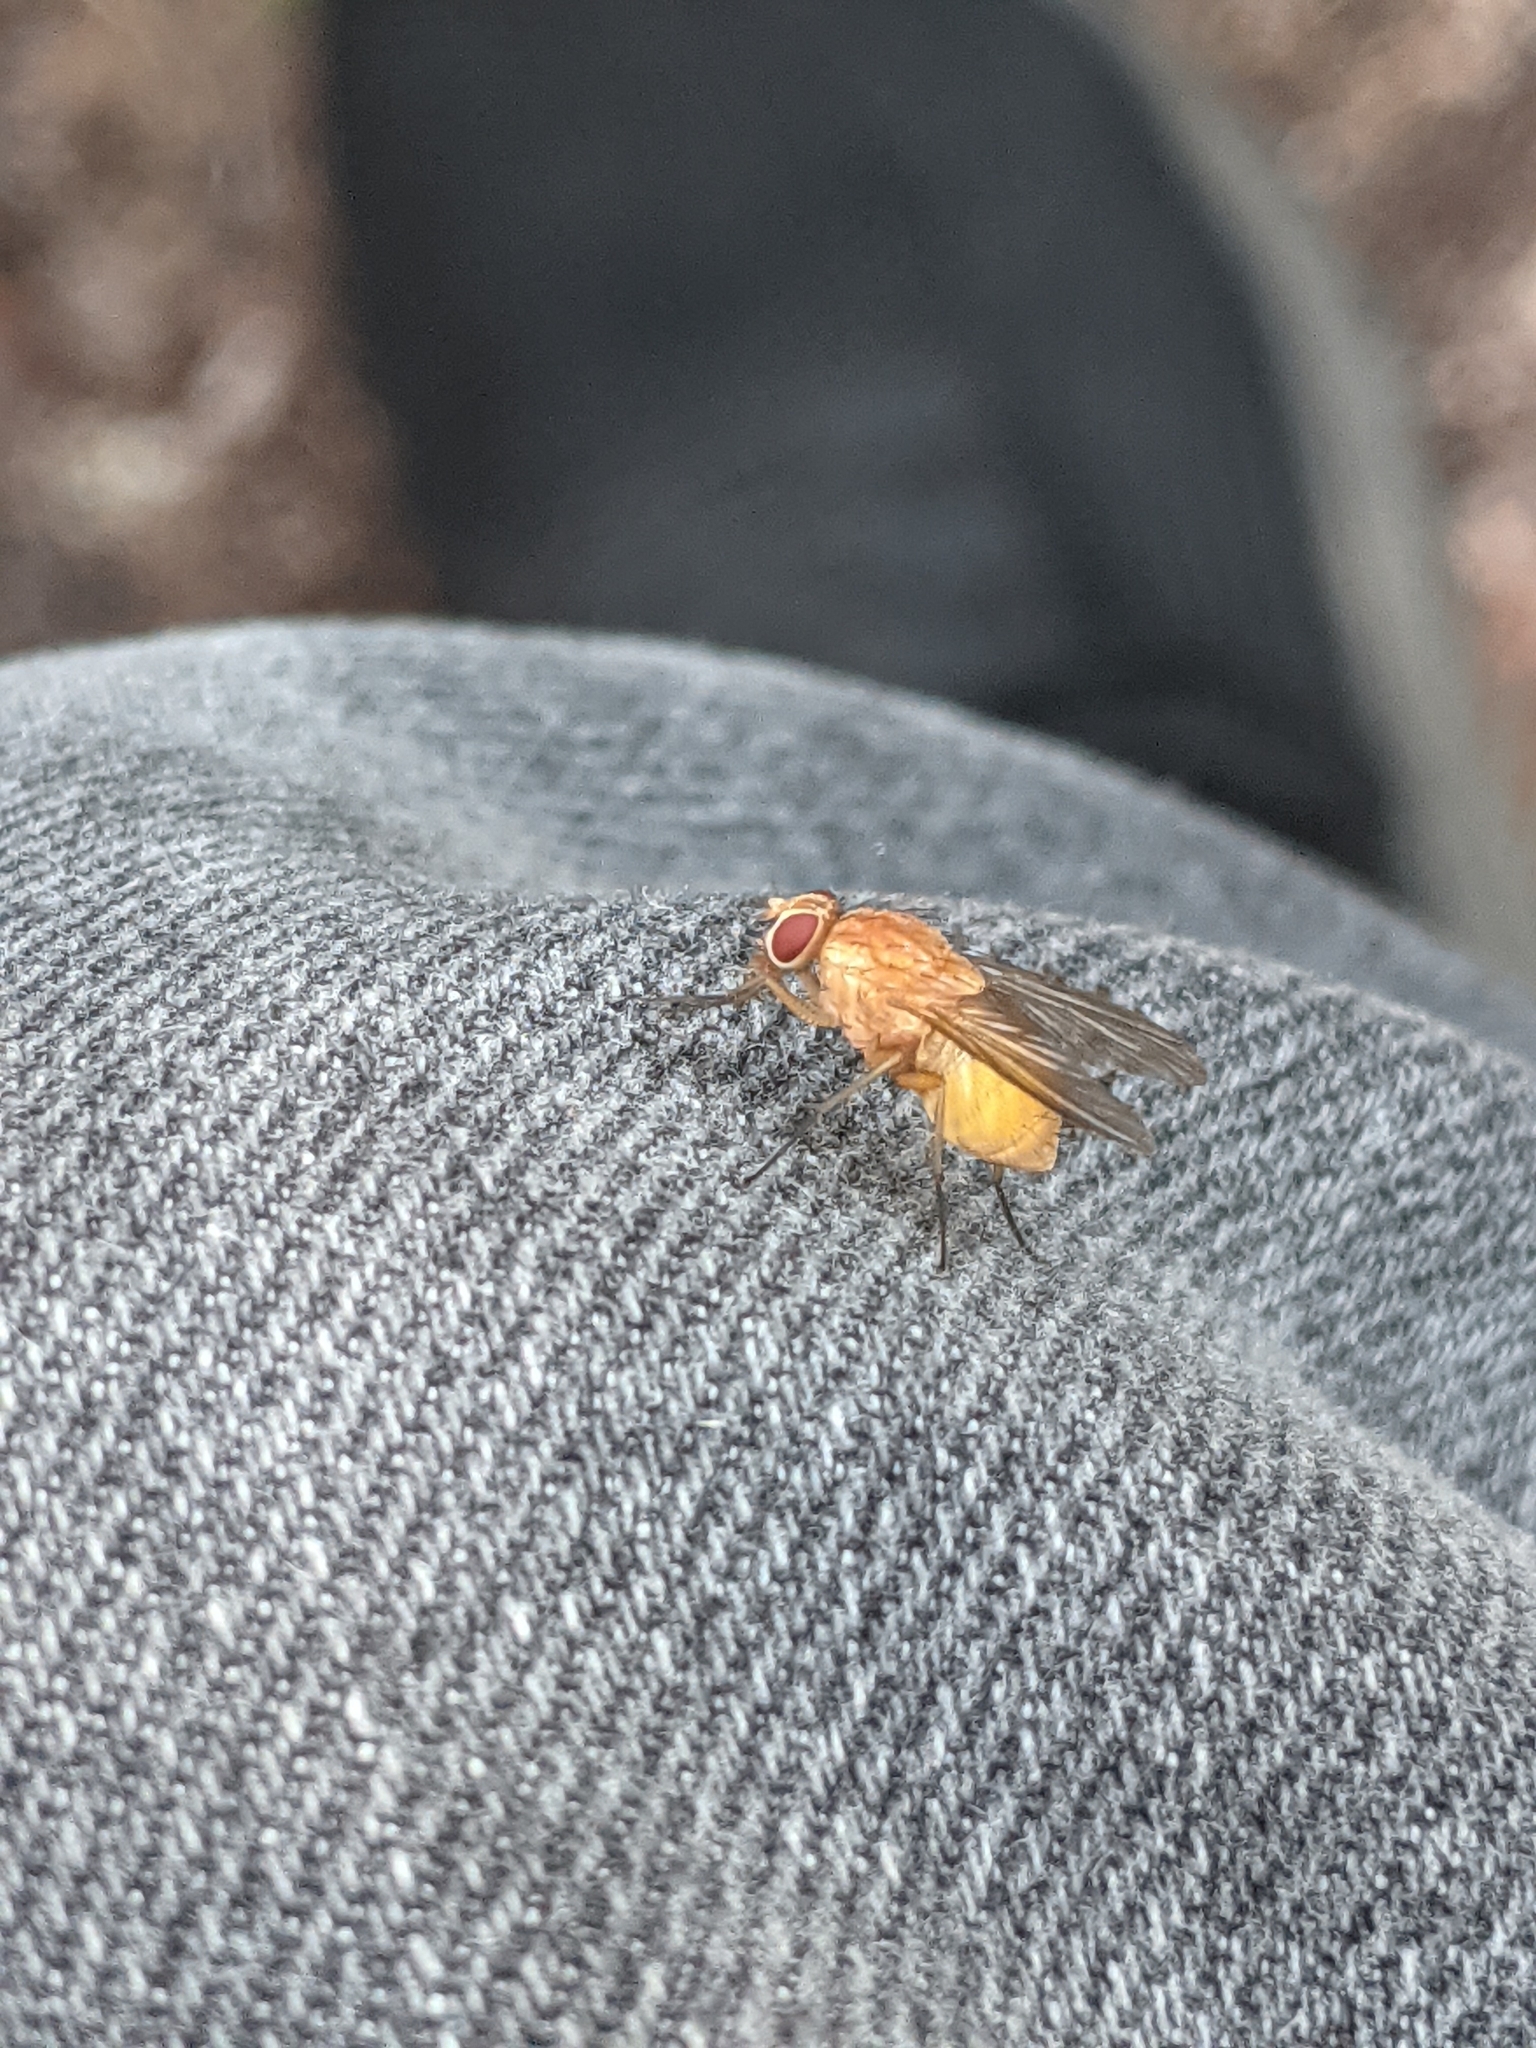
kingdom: Animalia
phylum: Arthropoda
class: Insecta
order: Diptera
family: Muscidae
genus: Phaonia
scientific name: Phaonia pallida
